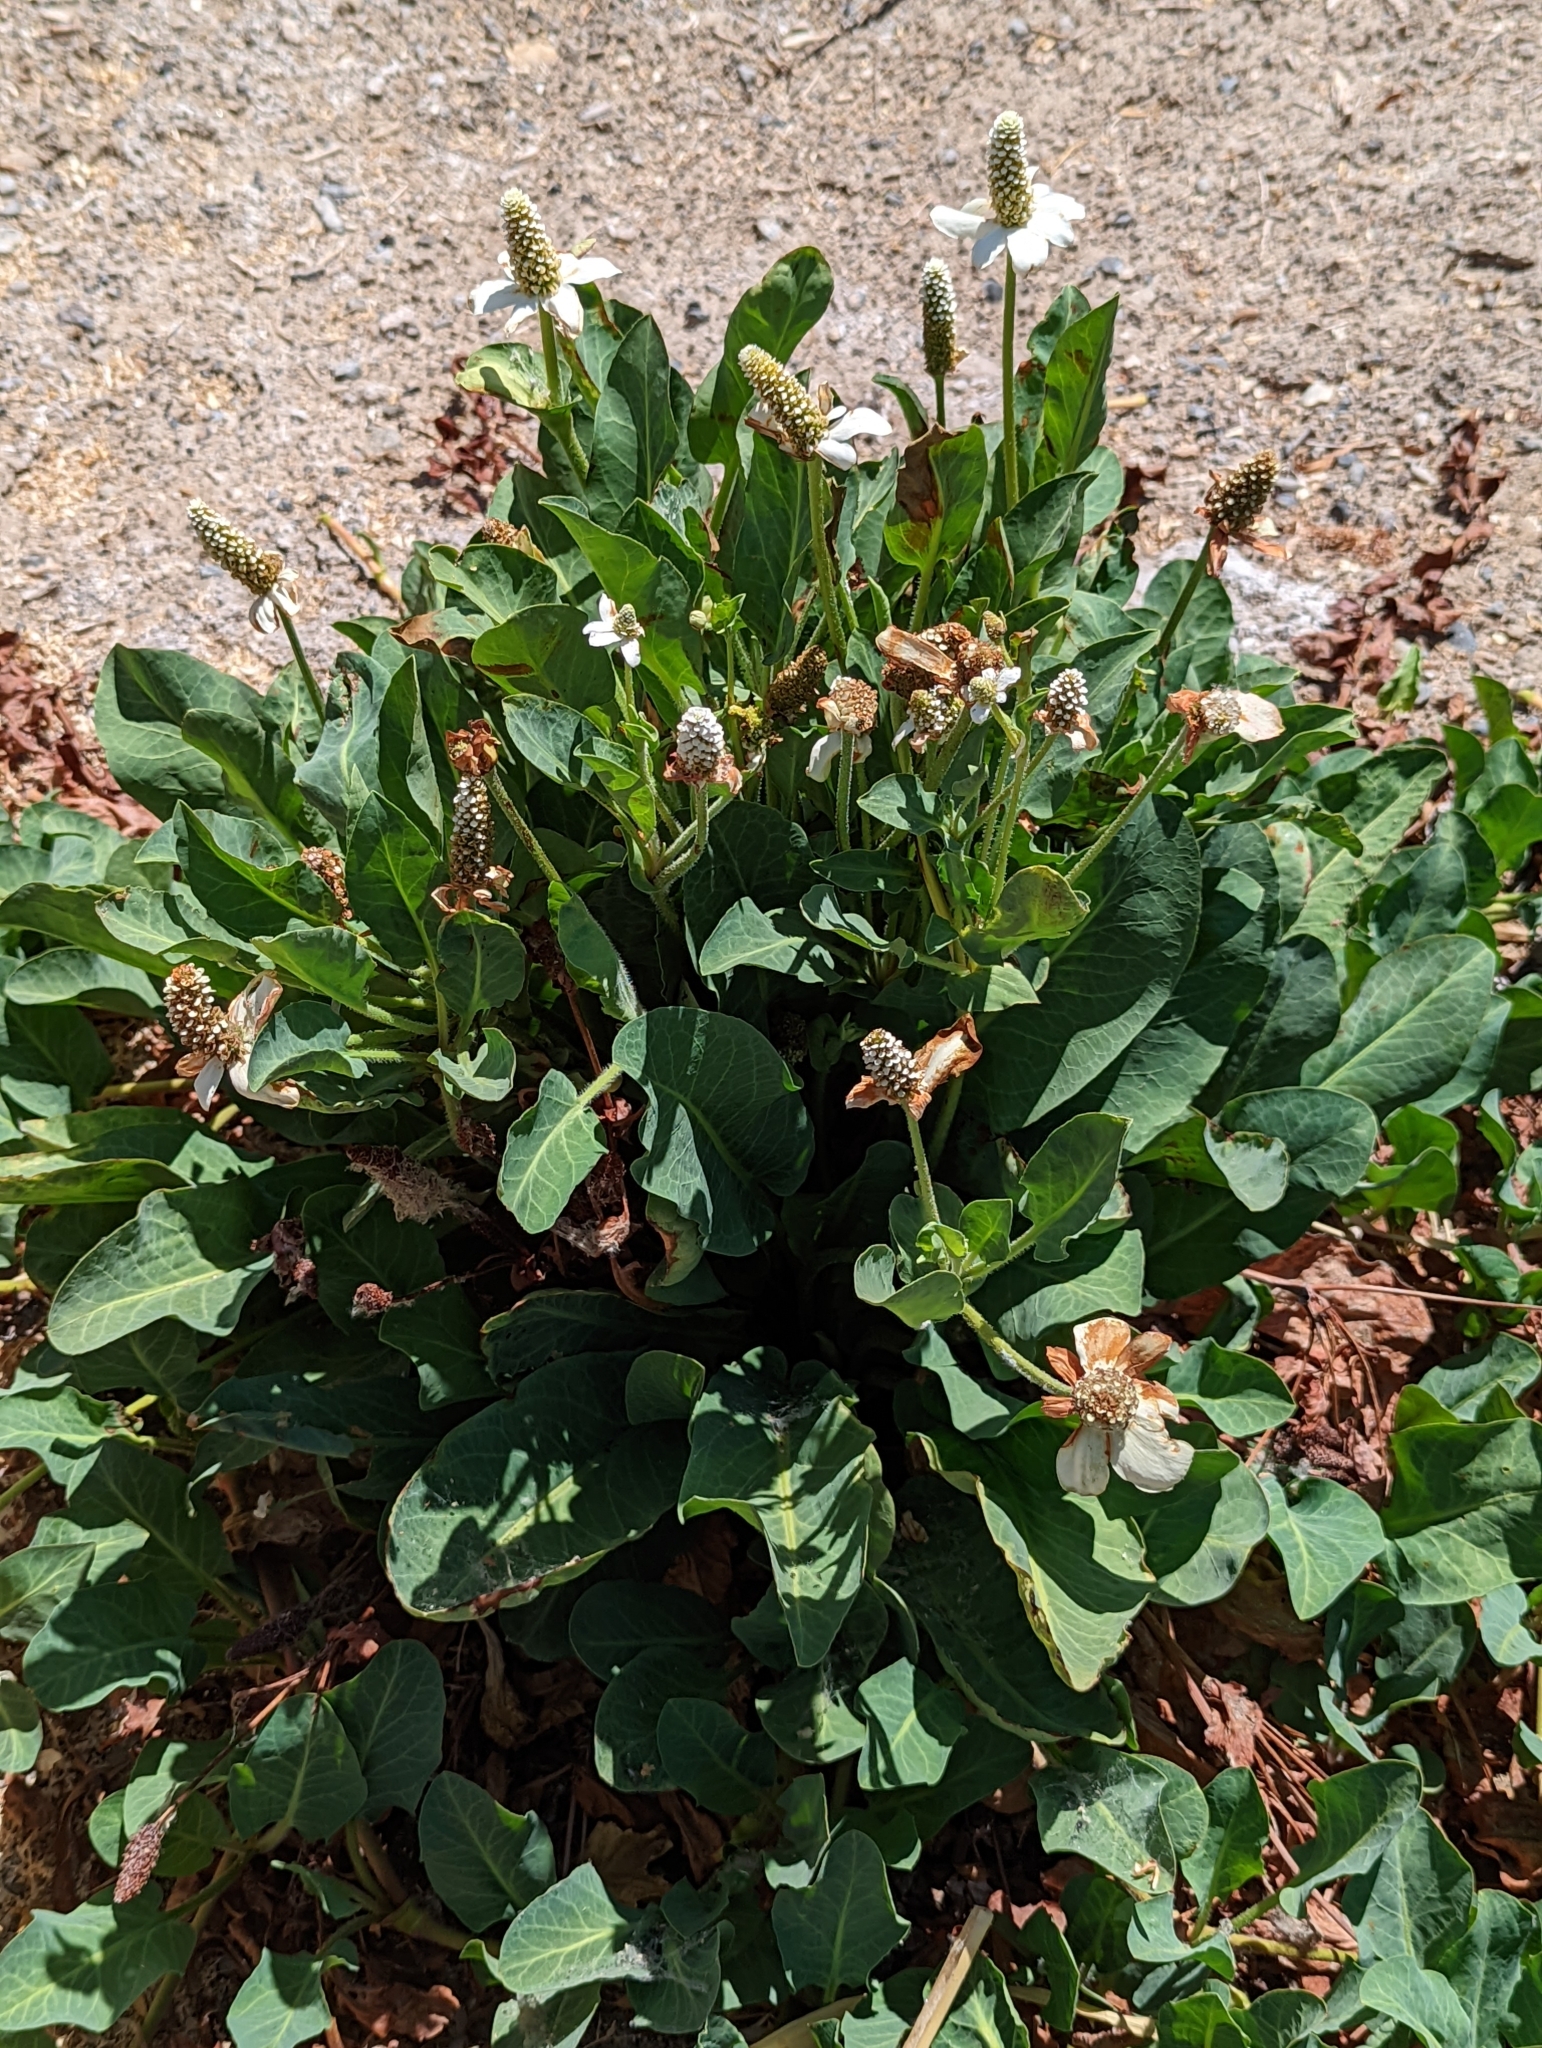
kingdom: Plantae
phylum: Tracheophyta
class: Magnoliopsida
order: Piperales
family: Saururaceae
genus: Anemopsis
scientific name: Anemopsis californica
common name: Apache-beads
